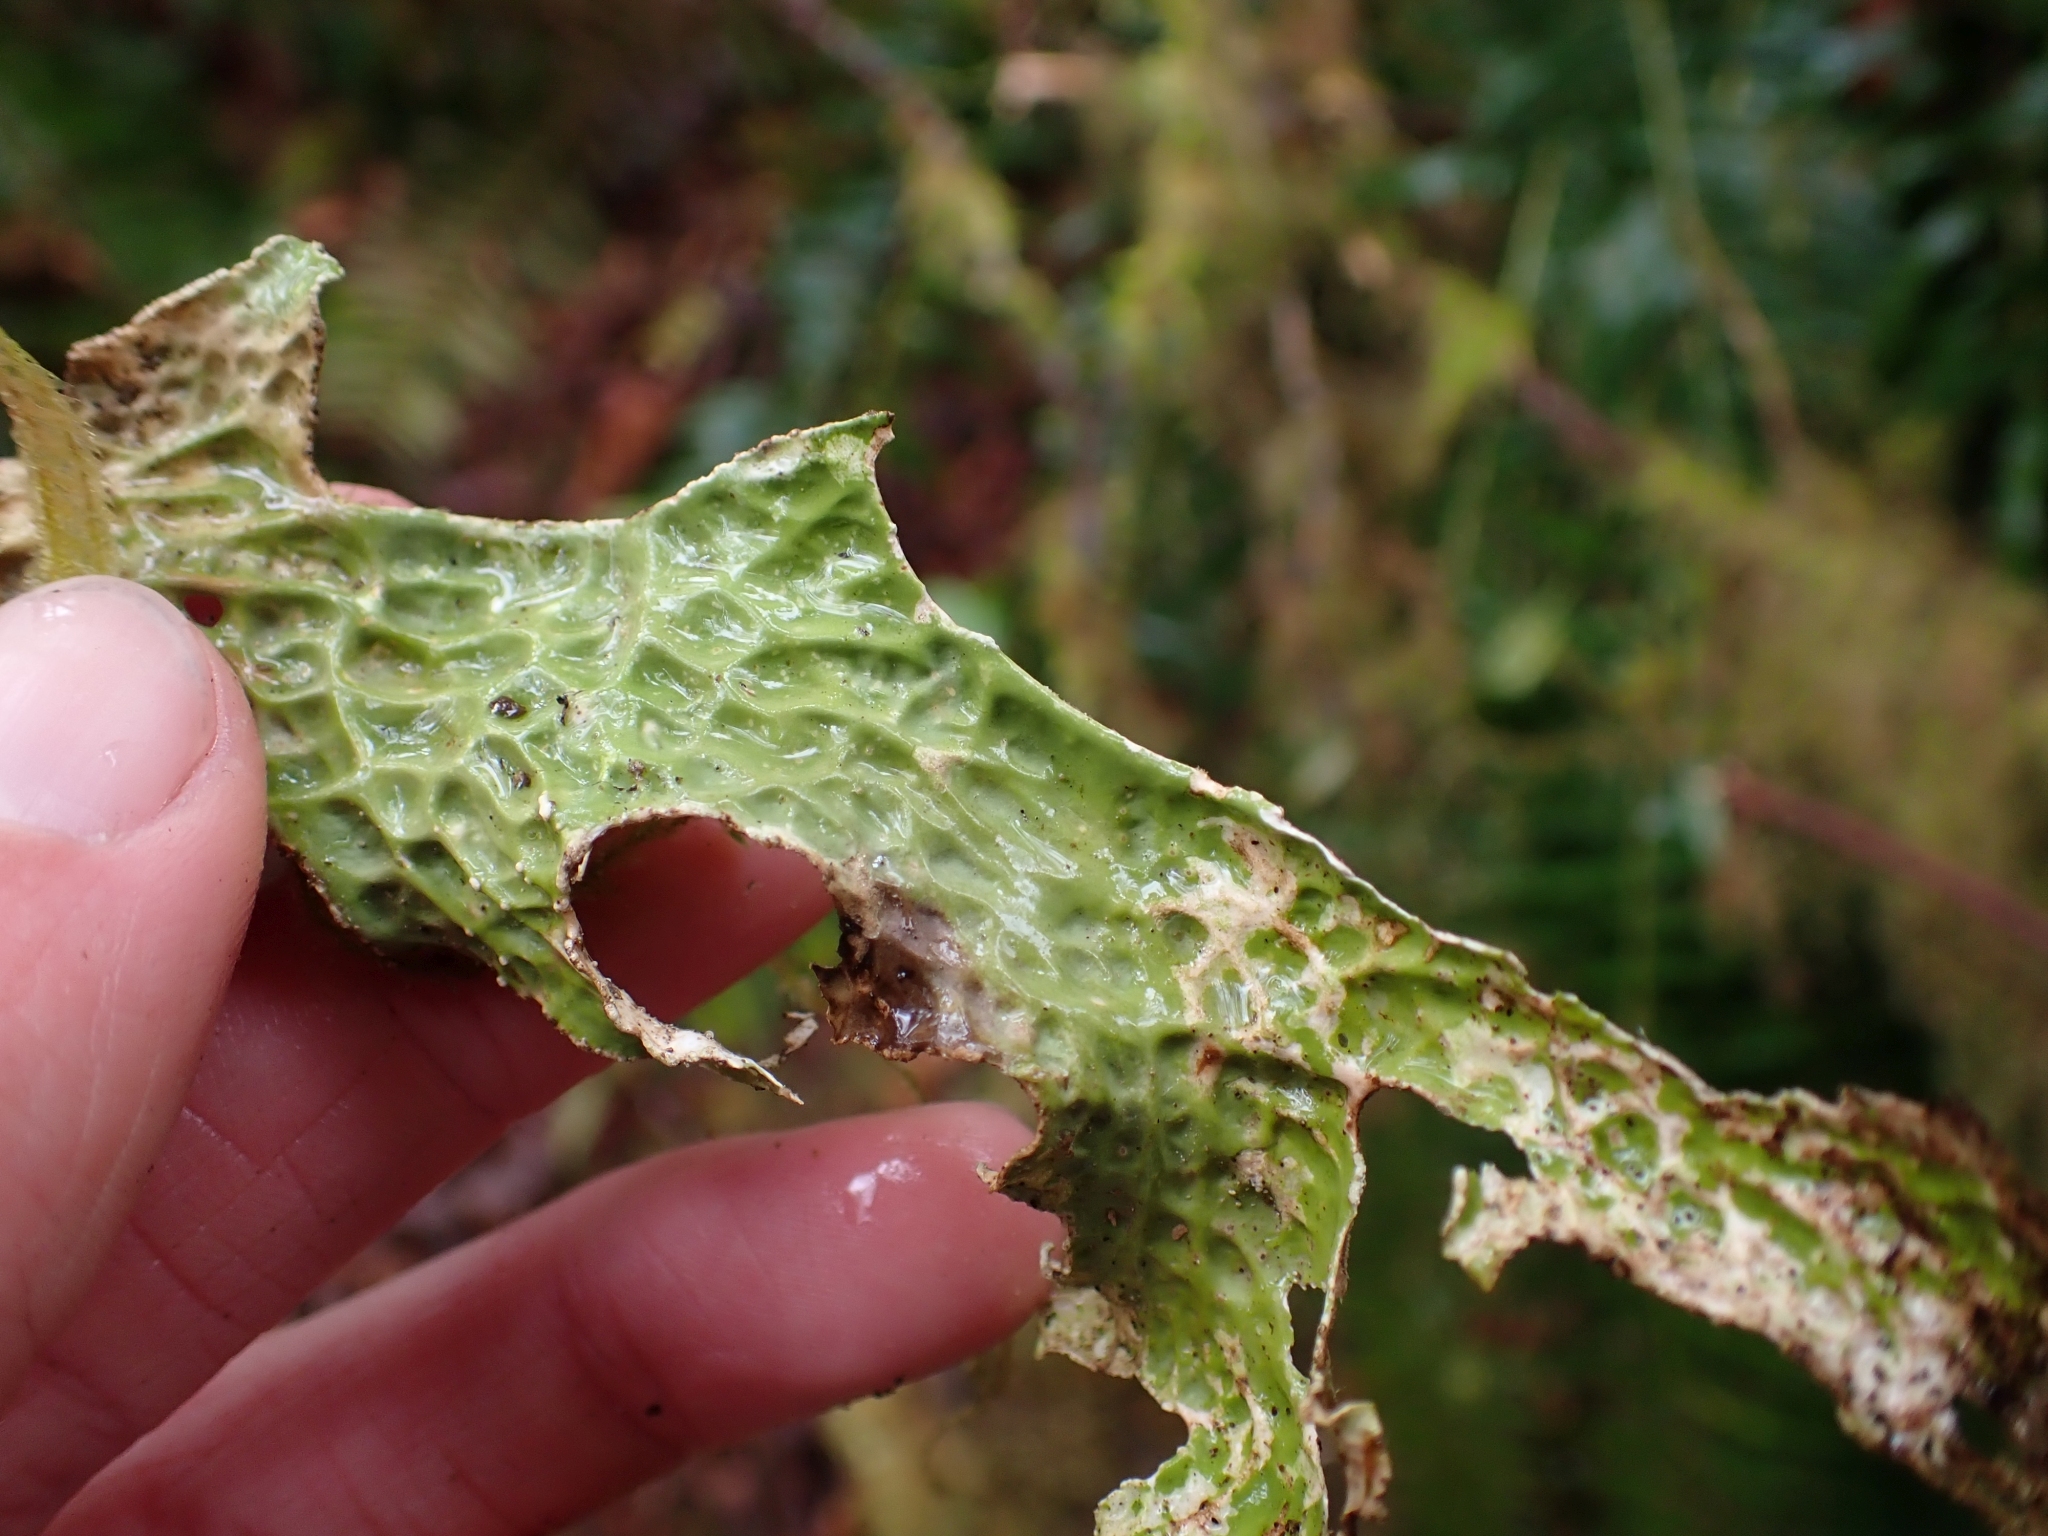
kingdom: Fungi
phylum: Ascomycota
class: Lecanoromycetes
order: Peltigerales
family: Lobariaceae
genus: Lobaria
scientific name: Lobaria pulmonaria
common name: Lungwort
